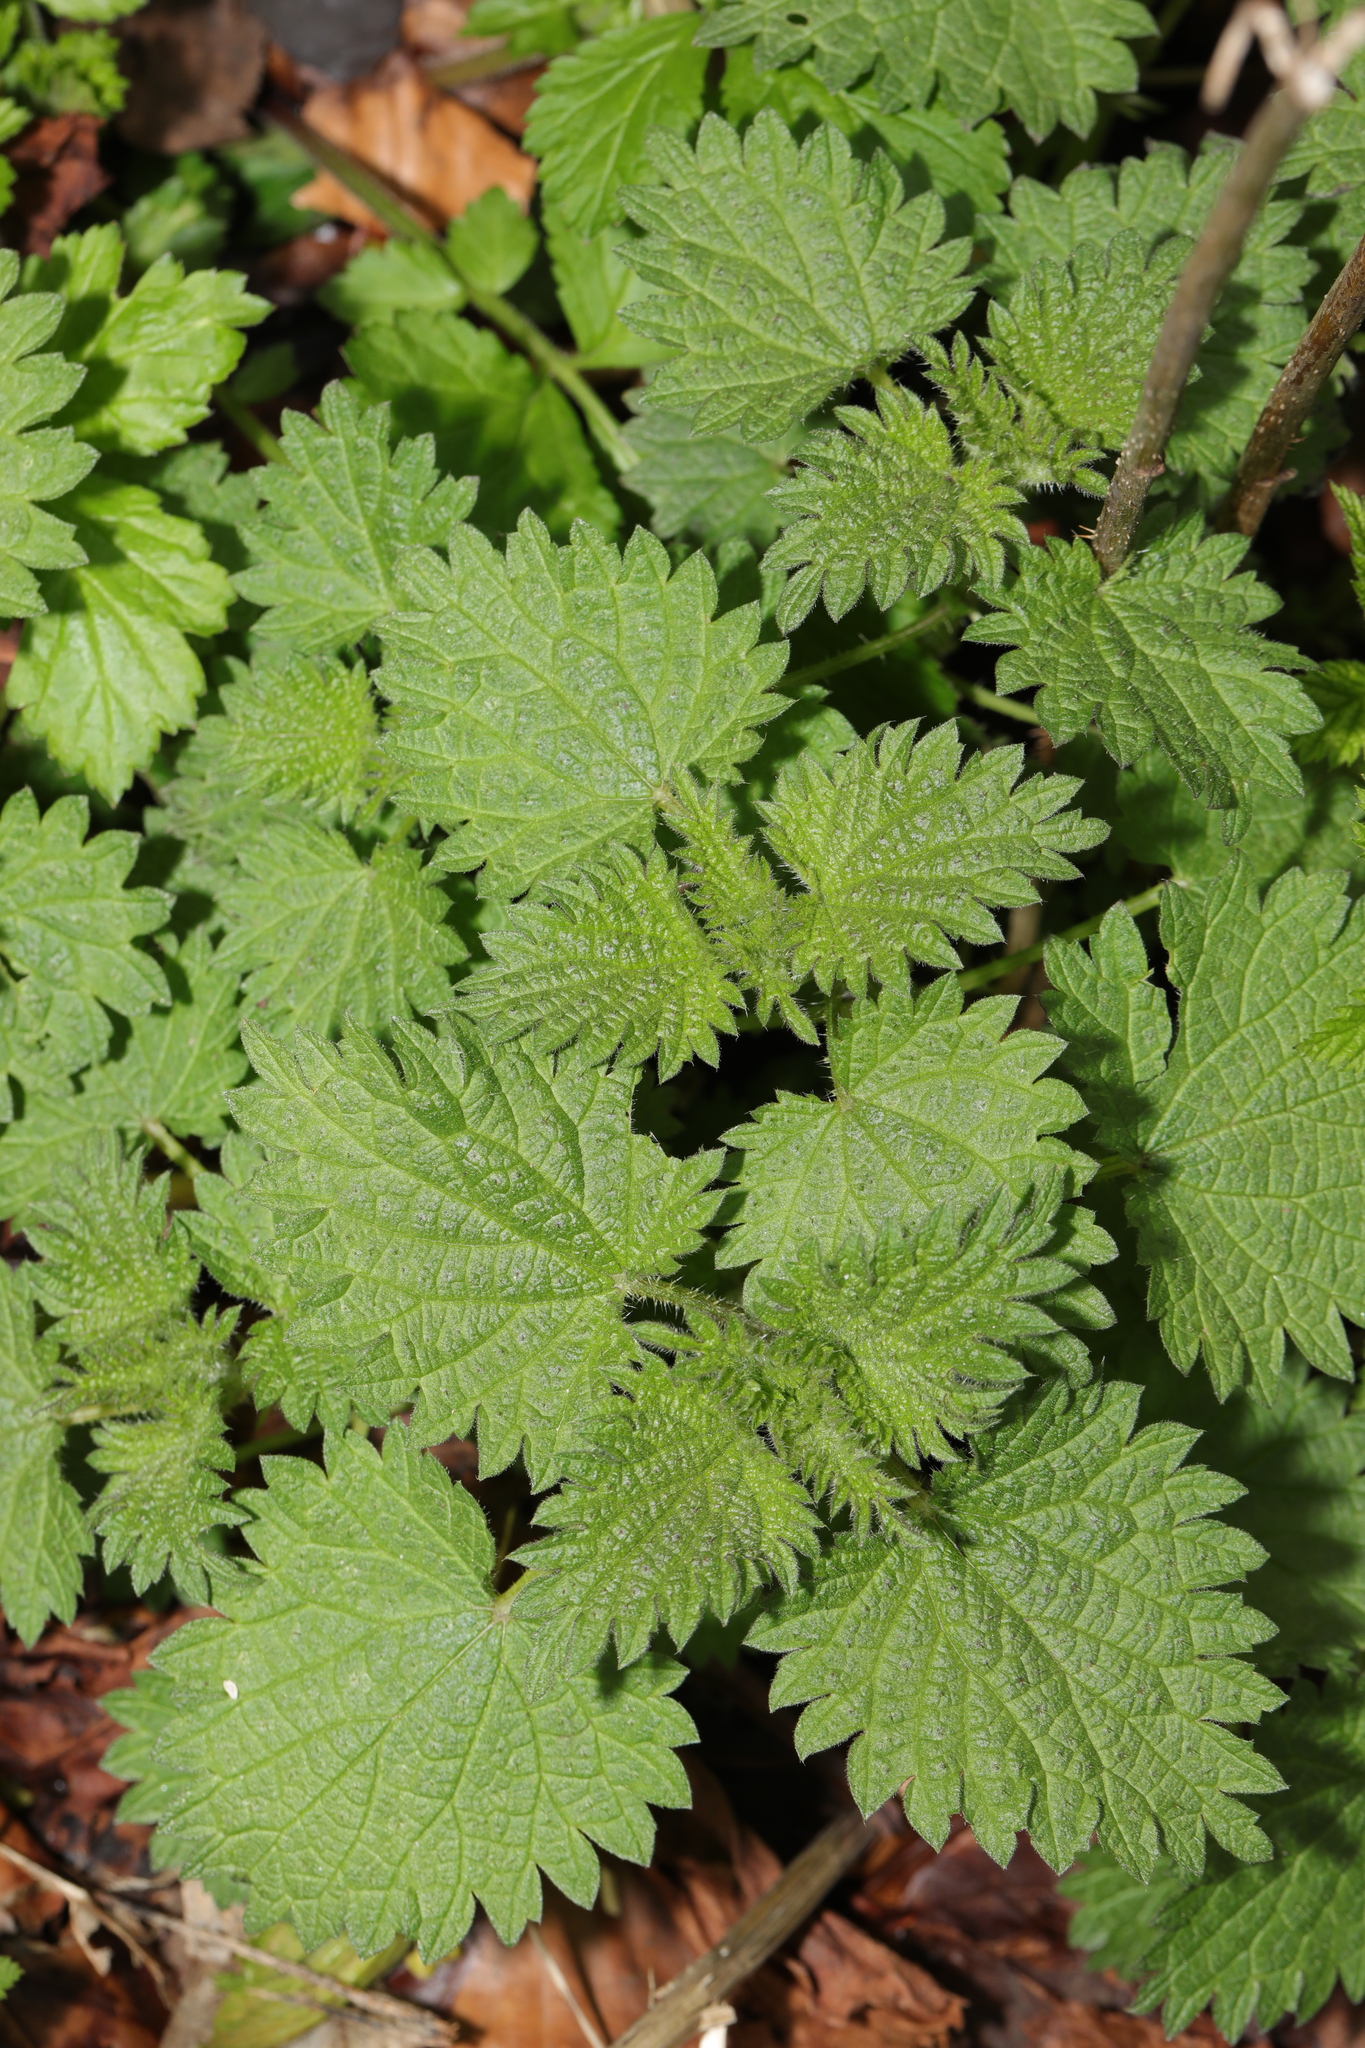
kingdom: Plantae
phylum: Tracheophyta
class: Magnoliopsida
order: Rosales
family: Urticaceae
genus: Urtica
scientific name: Urtica dioica
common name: Common nettle
